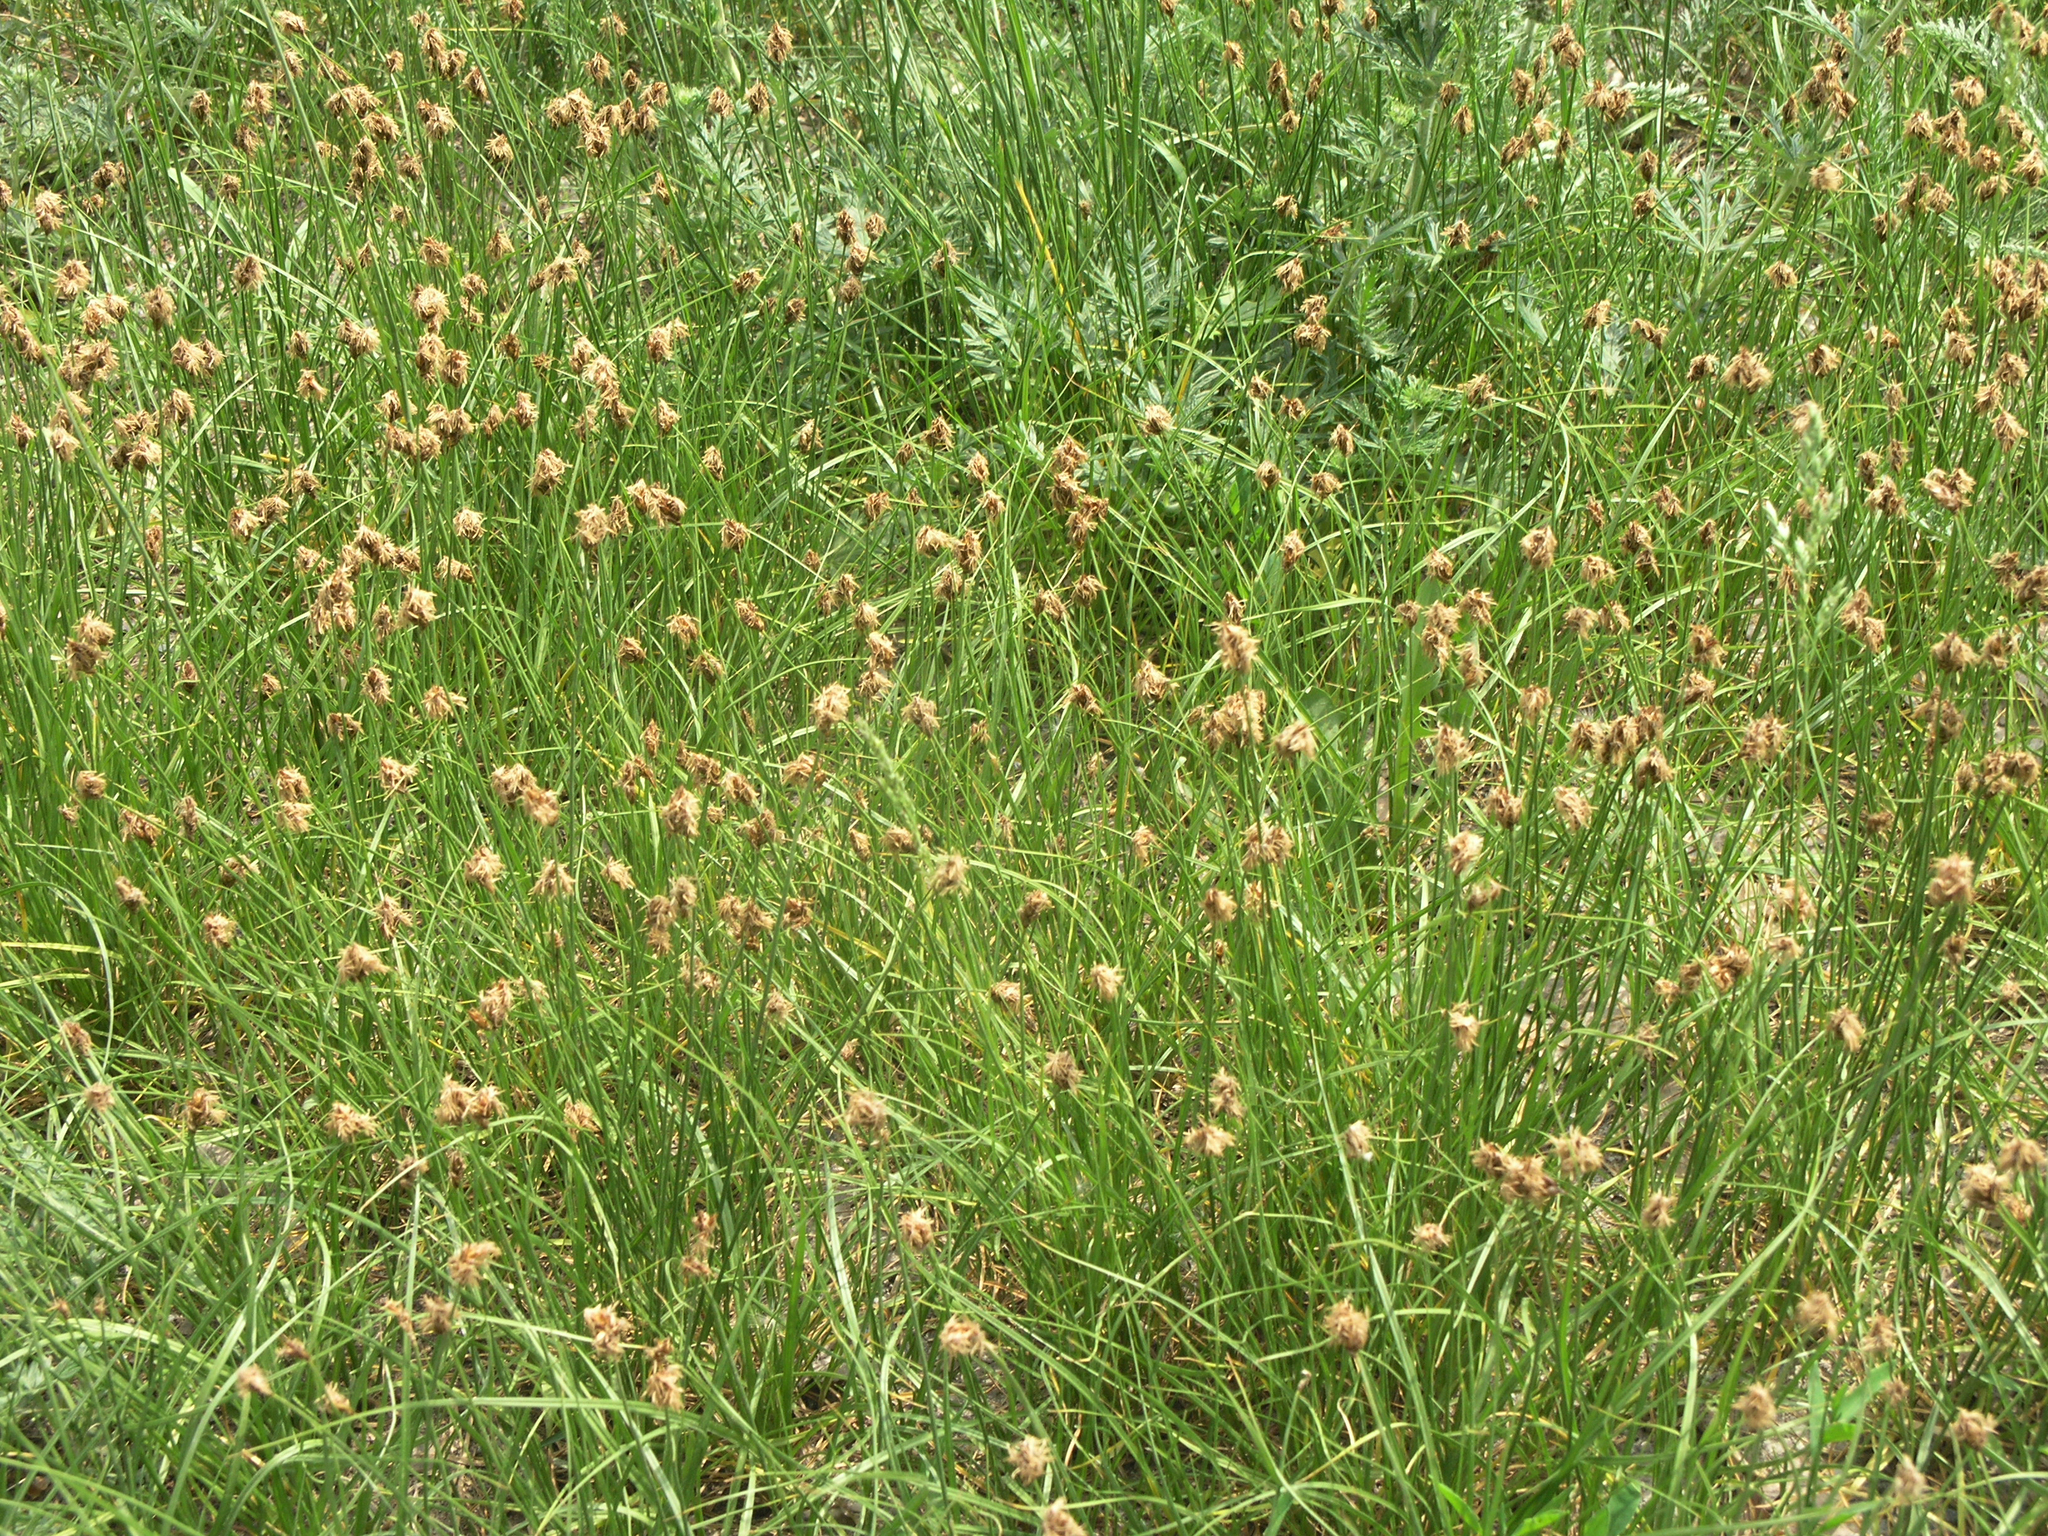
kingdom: Plantae
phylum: Tracheophyta
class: Liliopsida
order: Poales
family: Cyperaceae
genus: Carex
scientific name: Carex praecox
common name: Early sedge
